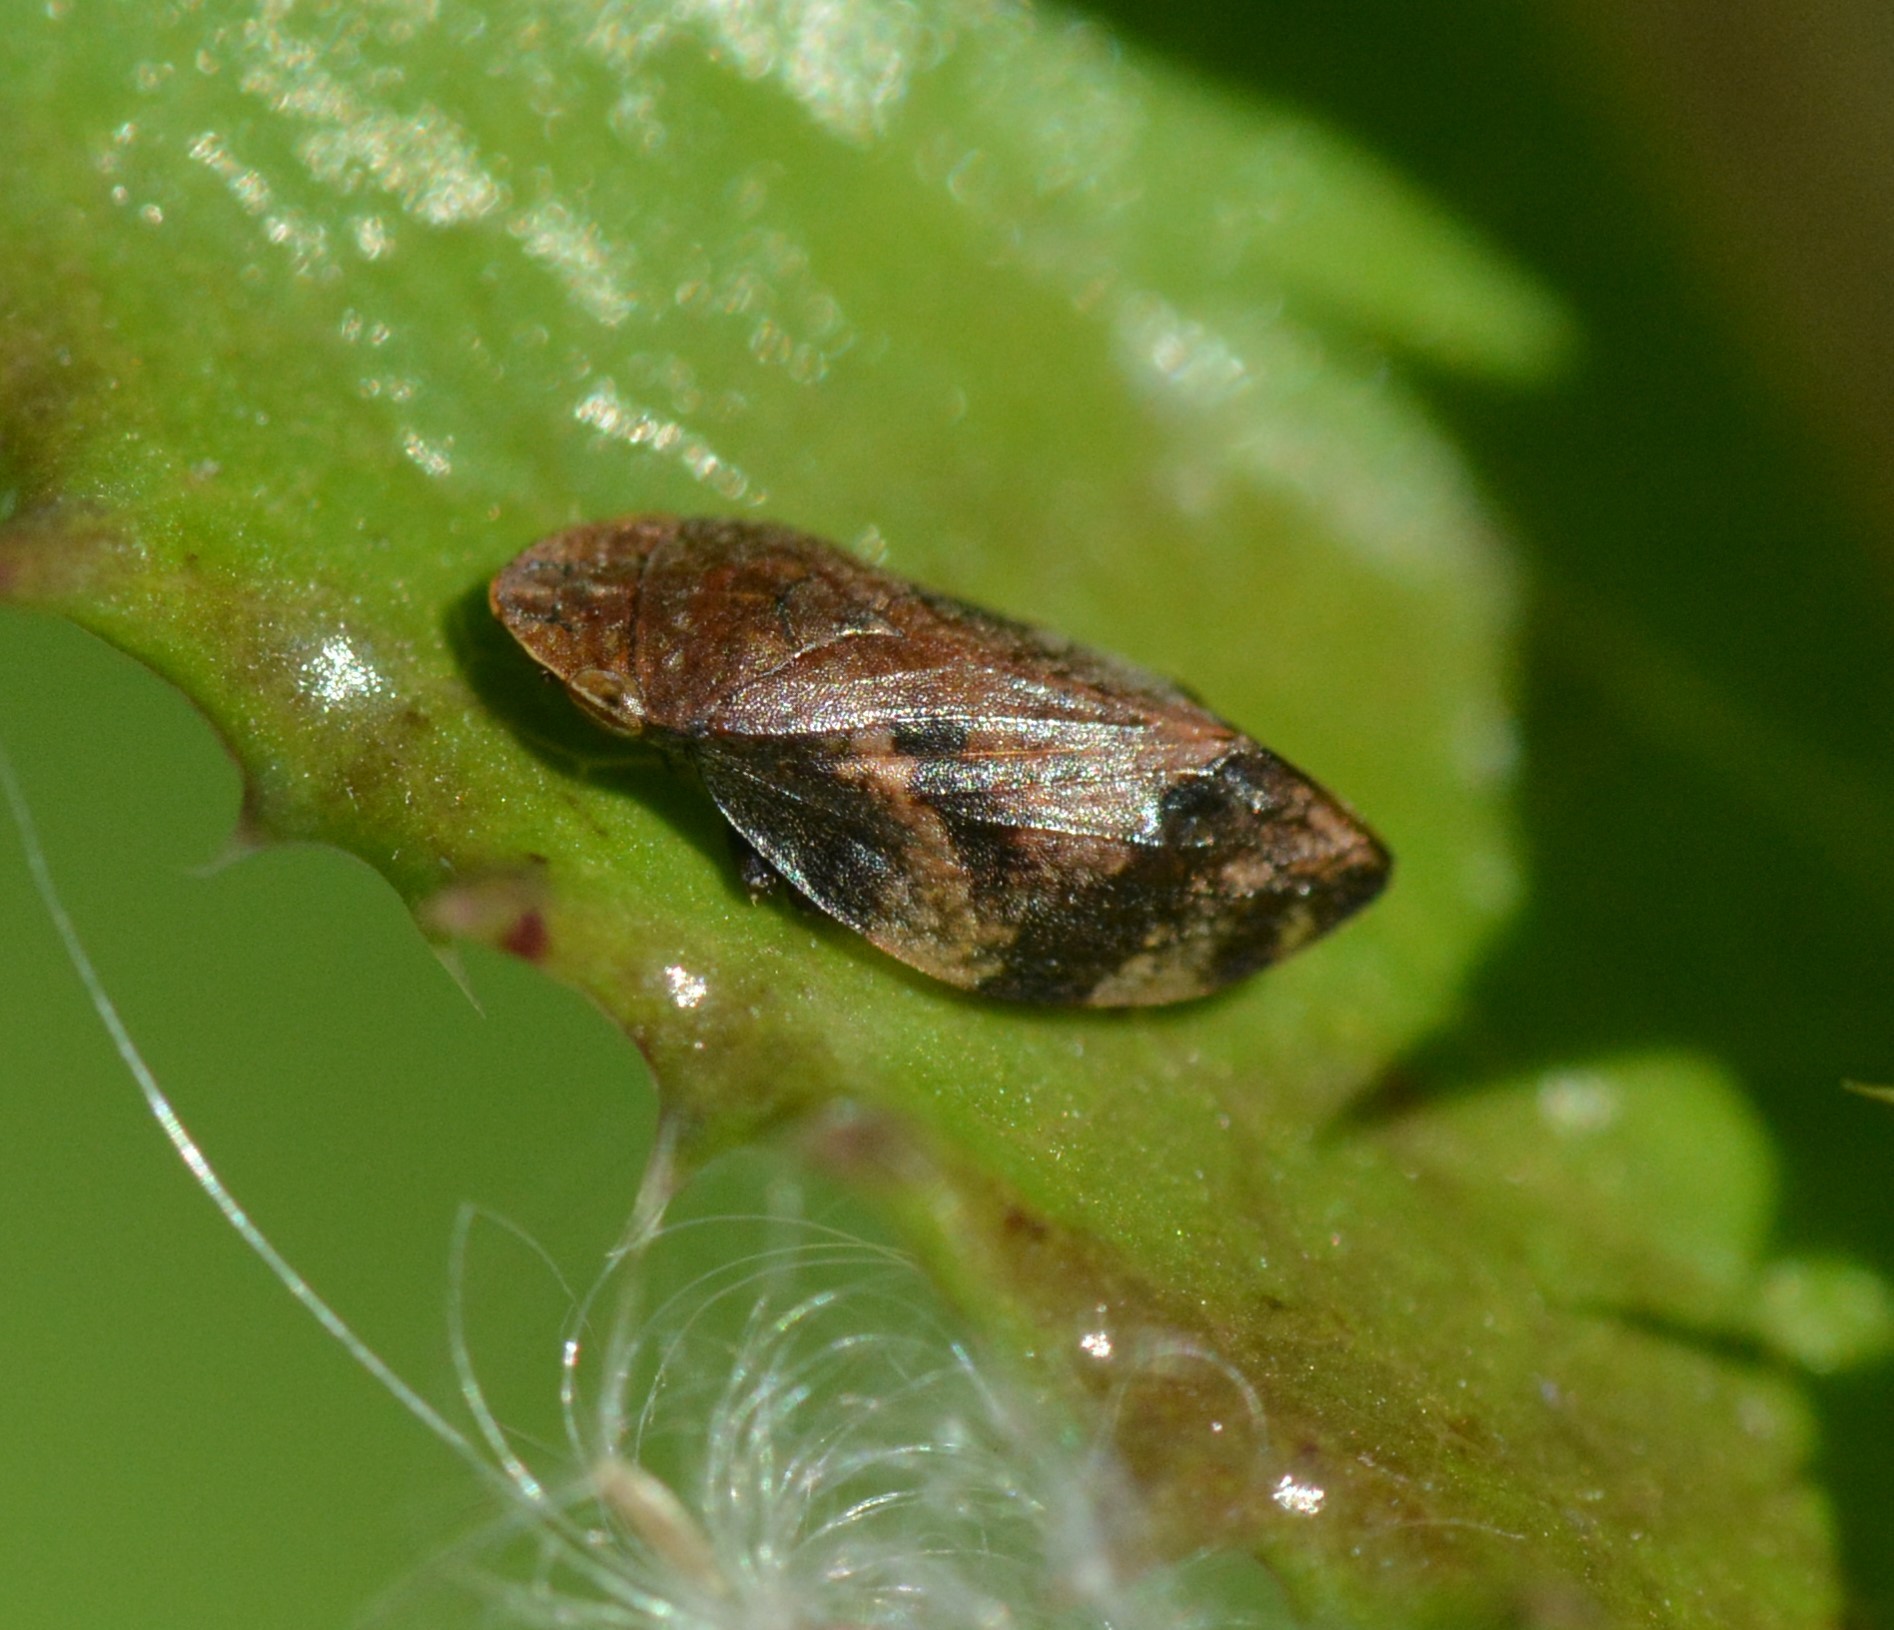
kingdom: Animalia
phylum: Arthropoda
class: Insecta
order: Hemiptera
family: Aphrophoridae
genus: Lepyronia
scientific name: Lepyronia quadrangularis
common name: Diamond-backed spittlebug
